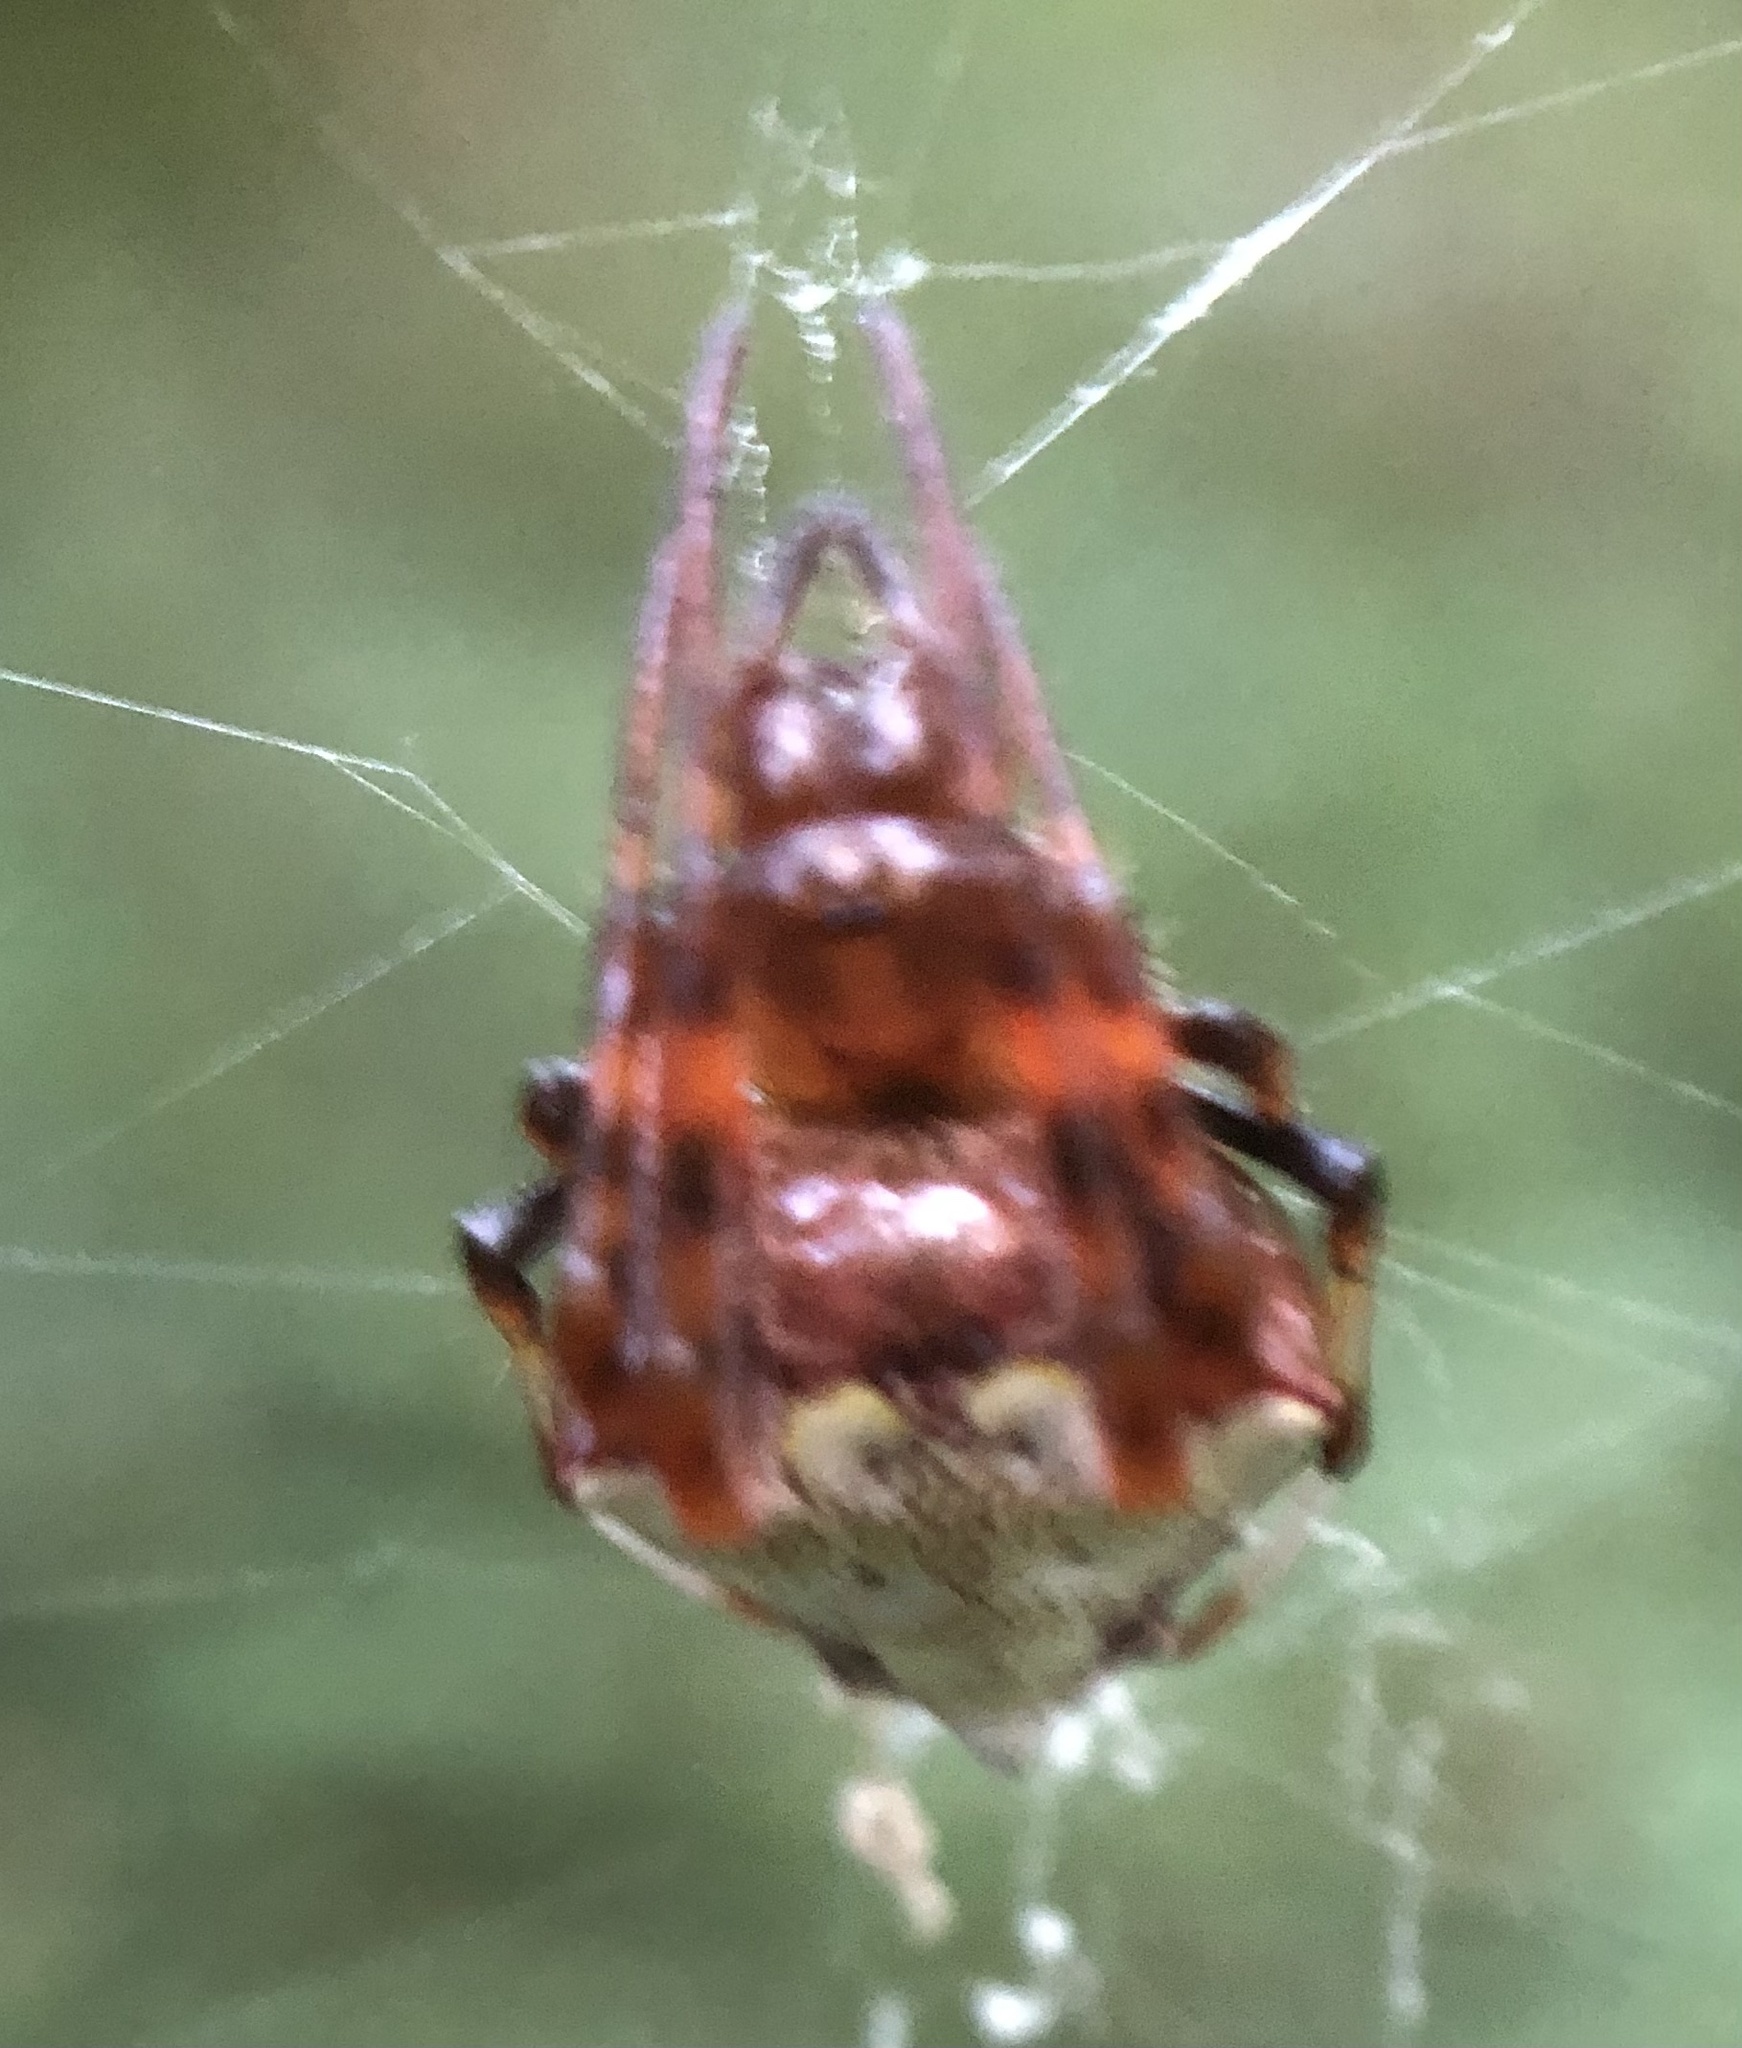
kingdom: Animalia
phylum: Arthropoda
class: Arachnida
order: Araneae
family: Araneidae
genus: Verrucosa
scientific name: Verrucosa arenata
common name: Orb weavers
